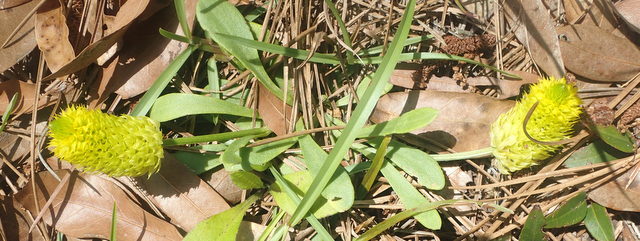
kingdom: Plantae
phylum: Tracheophyta
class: Magnoliopsida
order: Fabales
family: Polygalaceae
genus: Polygala
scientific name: Polygala nana
